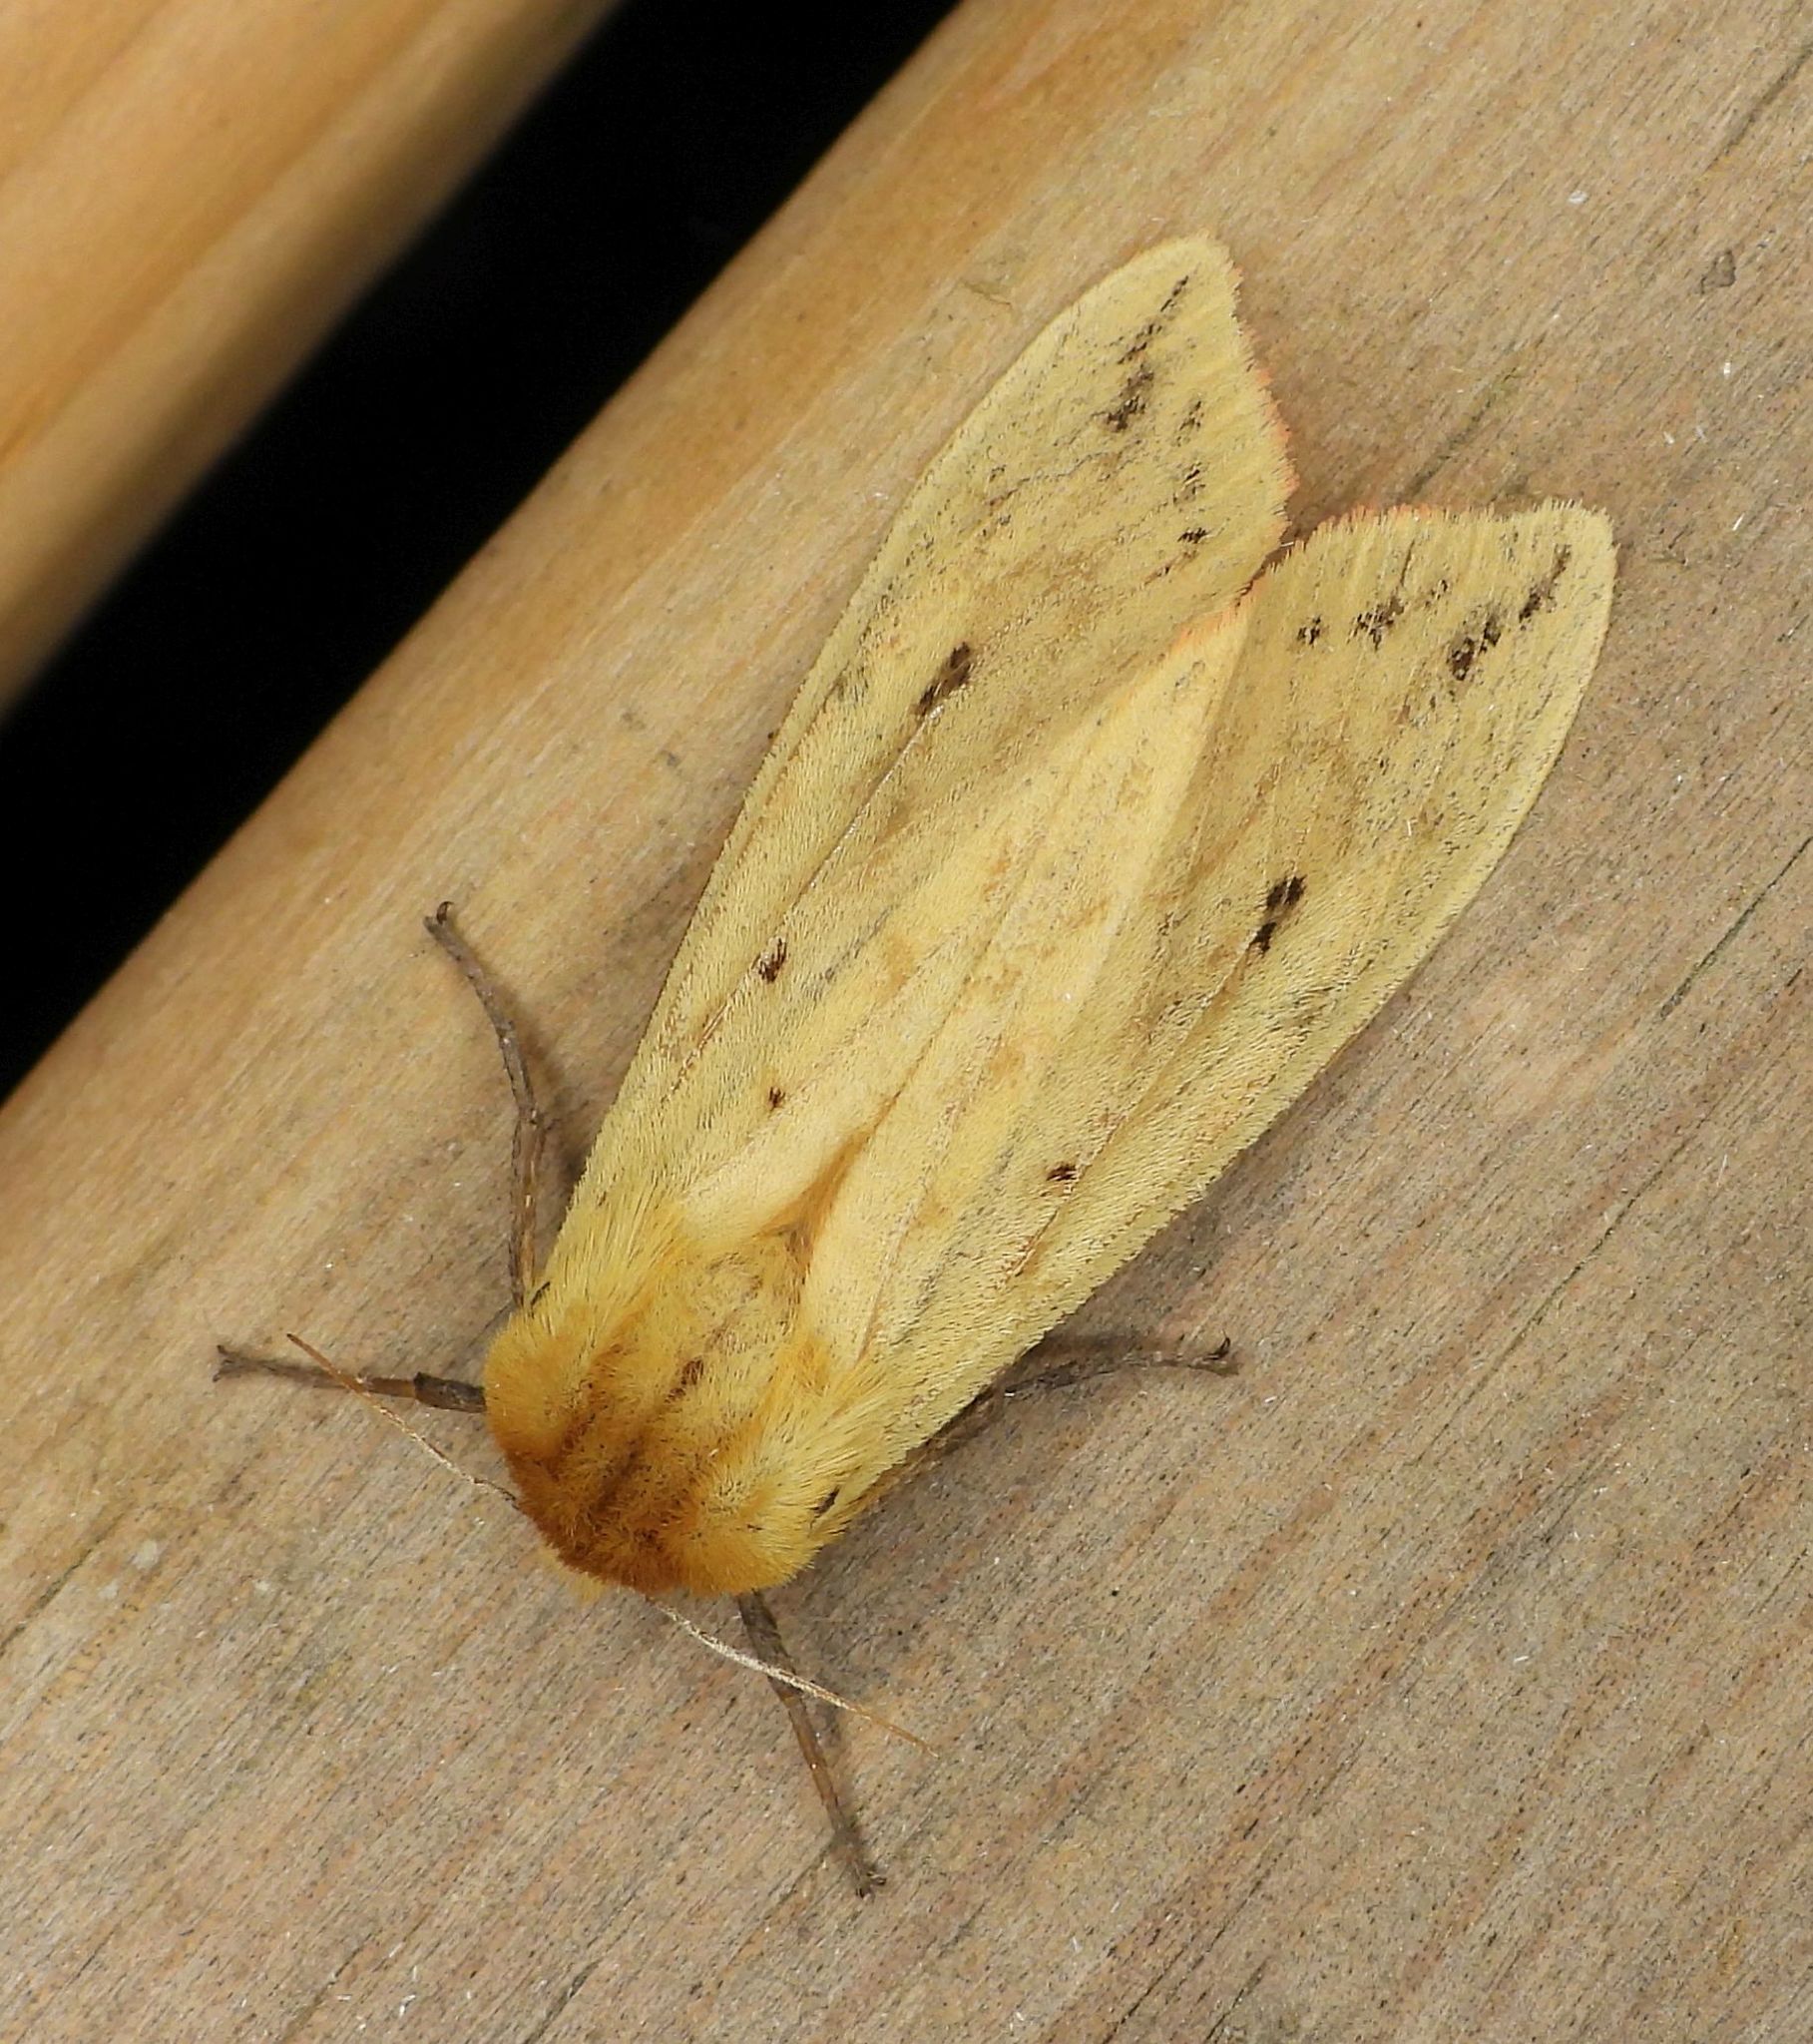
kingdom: Animalia
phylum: Arthropoda
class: Insecta
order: Lepidoptera
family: Erebidae
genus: Pyrrharctia
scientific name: Pyrrharctia isabella
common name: Isabella tiger moth
